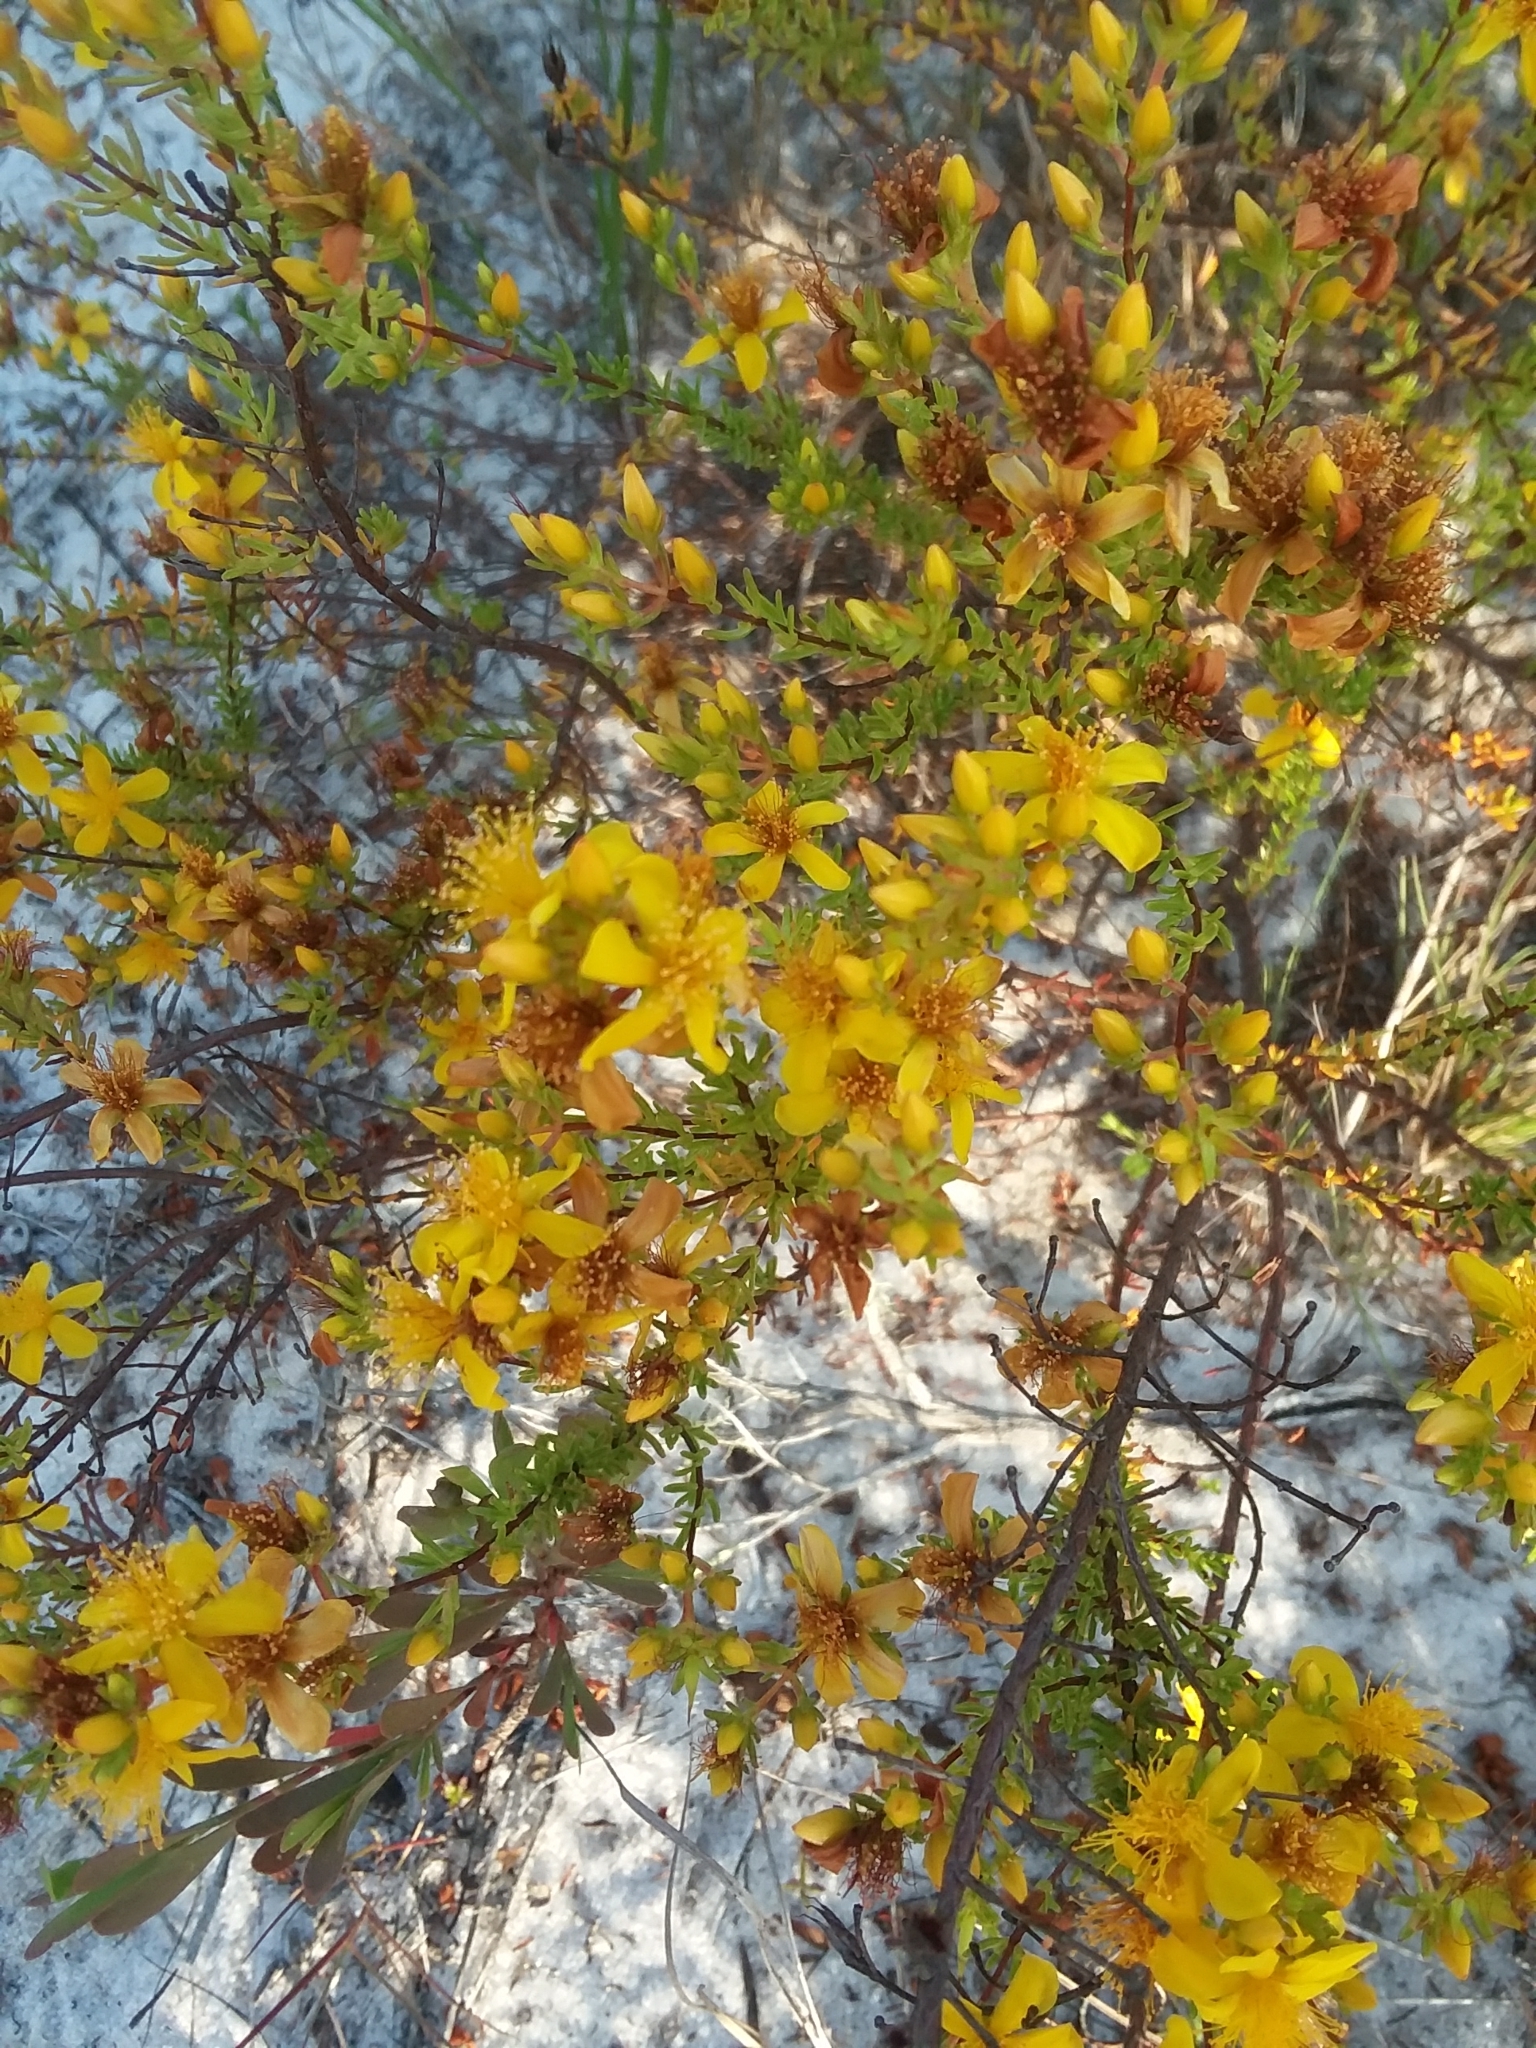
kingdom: Plantae
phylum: Tracheophyta
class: Magnoliopsida
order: Malpighiales
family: Hypericaceae
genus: Hypericum
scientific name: Hypericum tenuifolium
